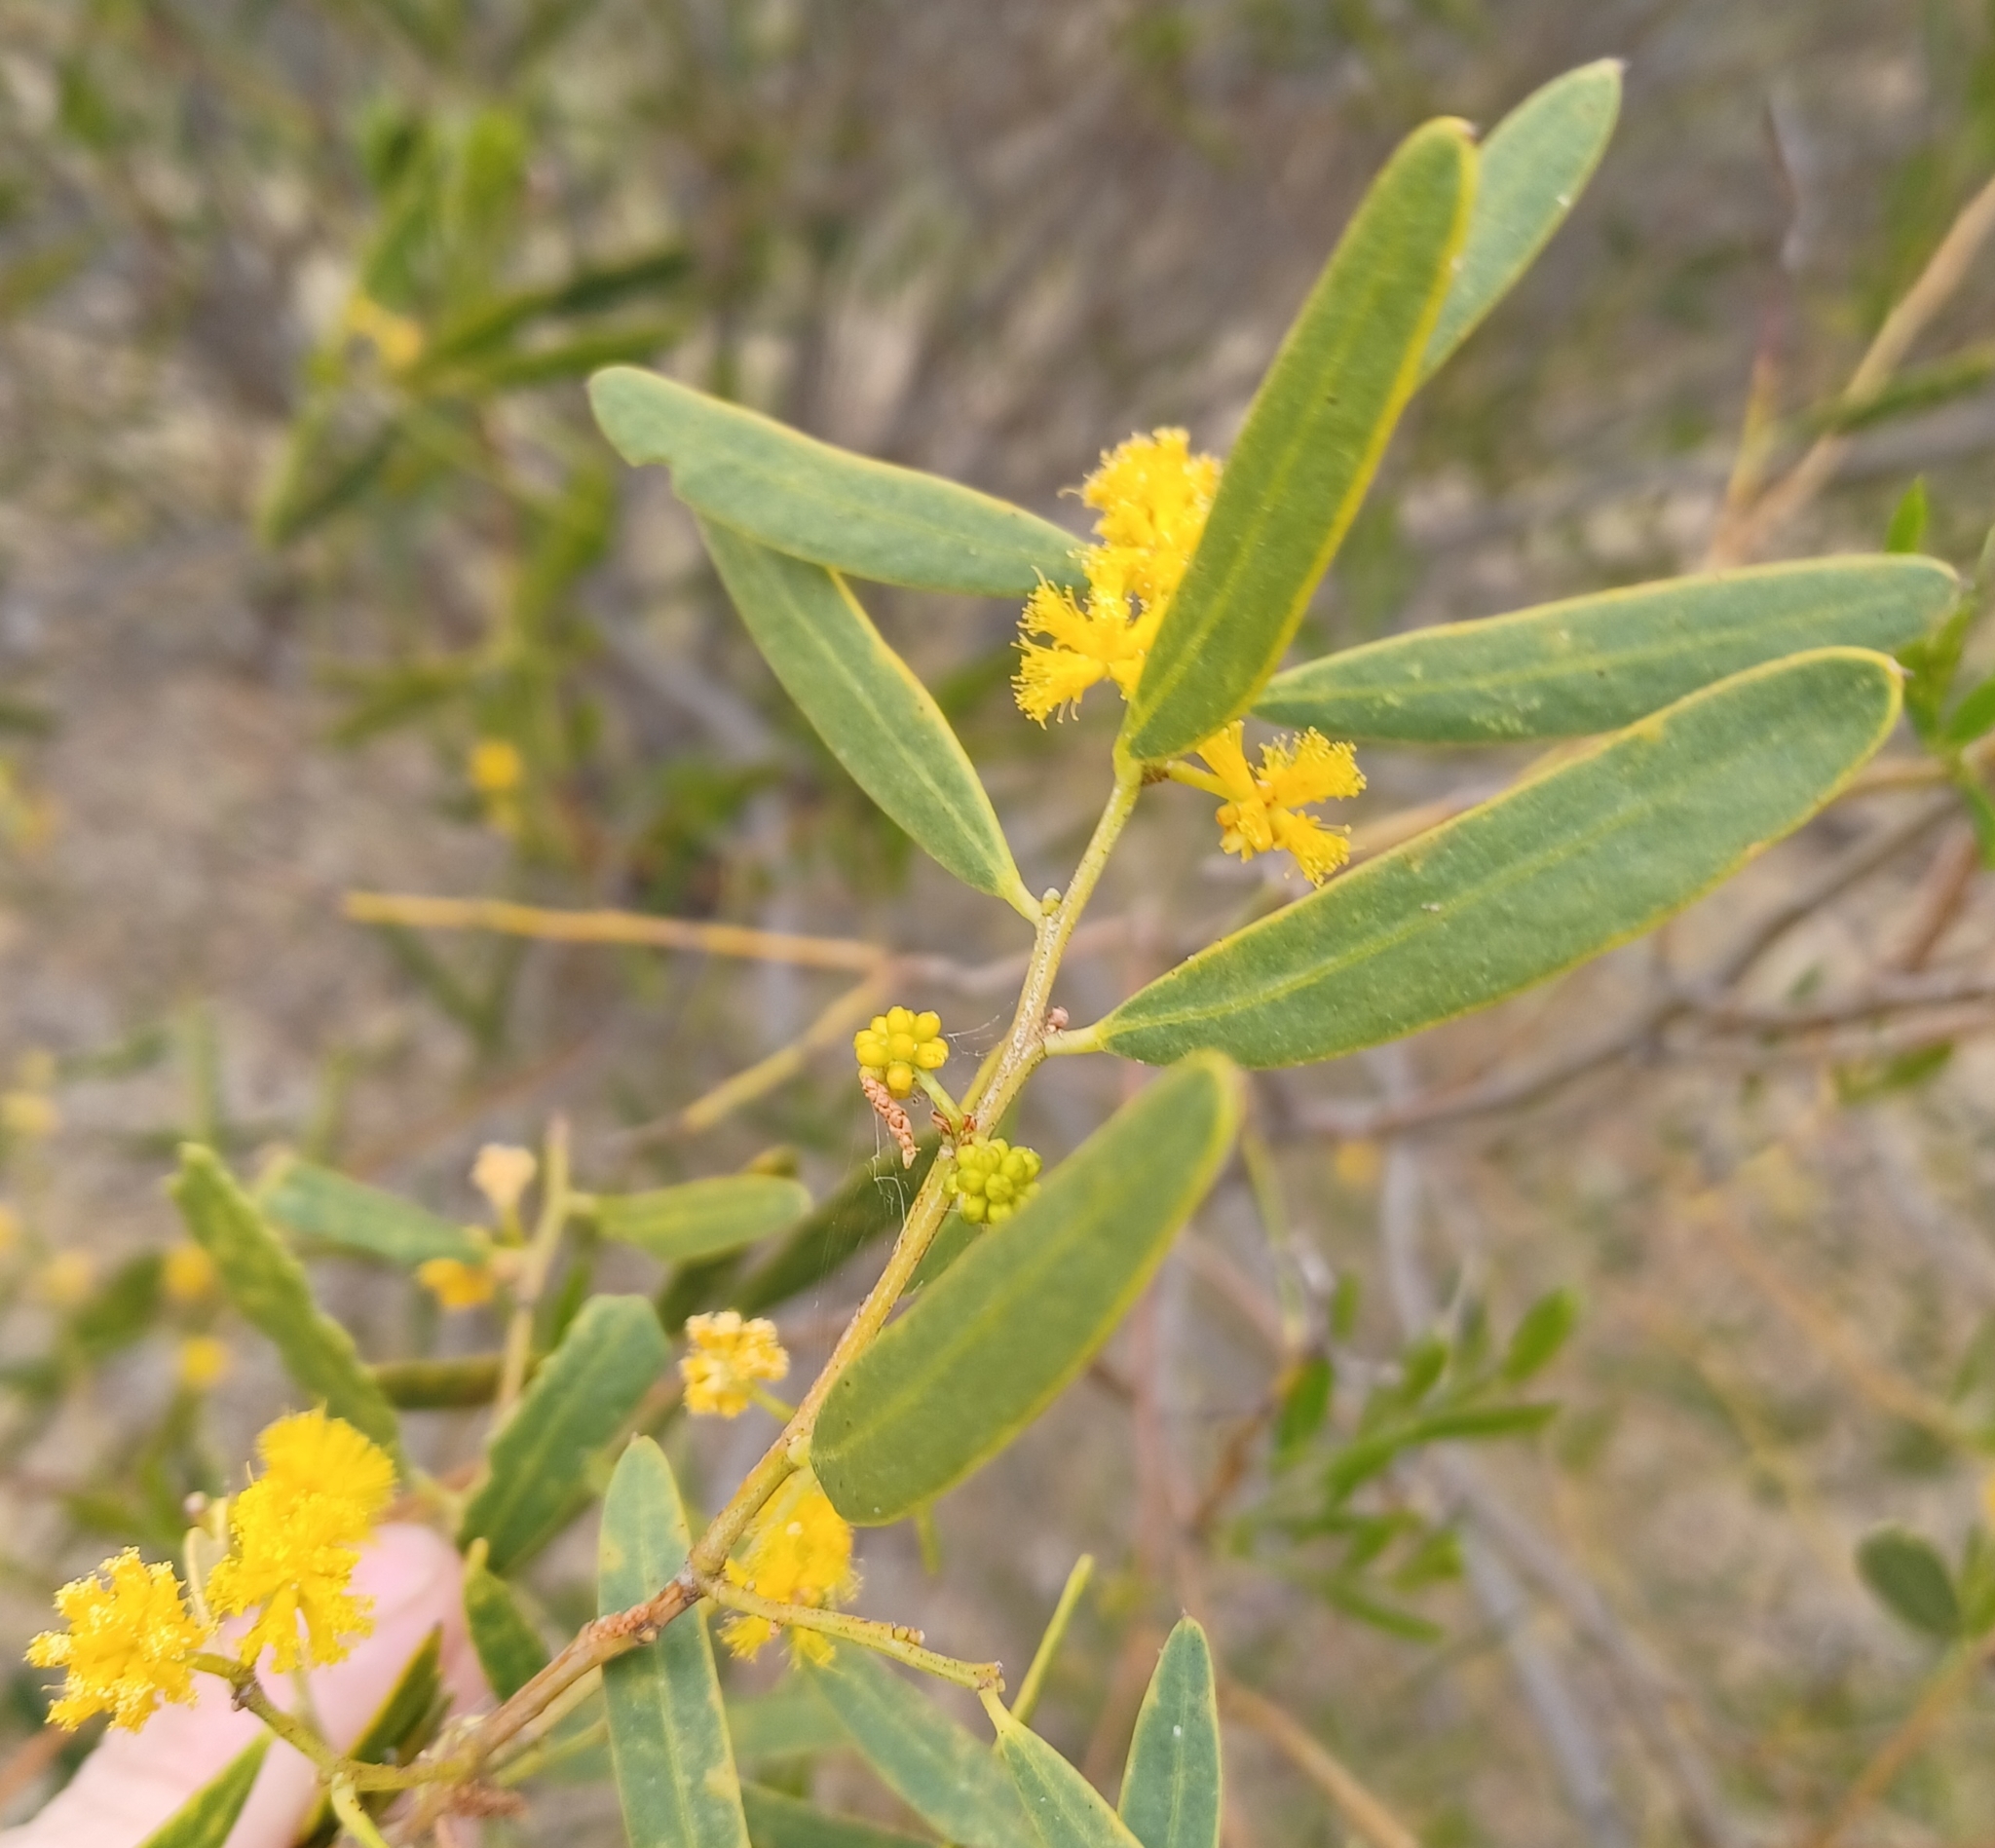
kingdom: Plantae
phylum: Tracheophyta
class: Magnoliopsida
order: Fabales
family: Fabaceae
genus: Acacia
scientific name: Acacia ligulata
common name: Dune wattle
